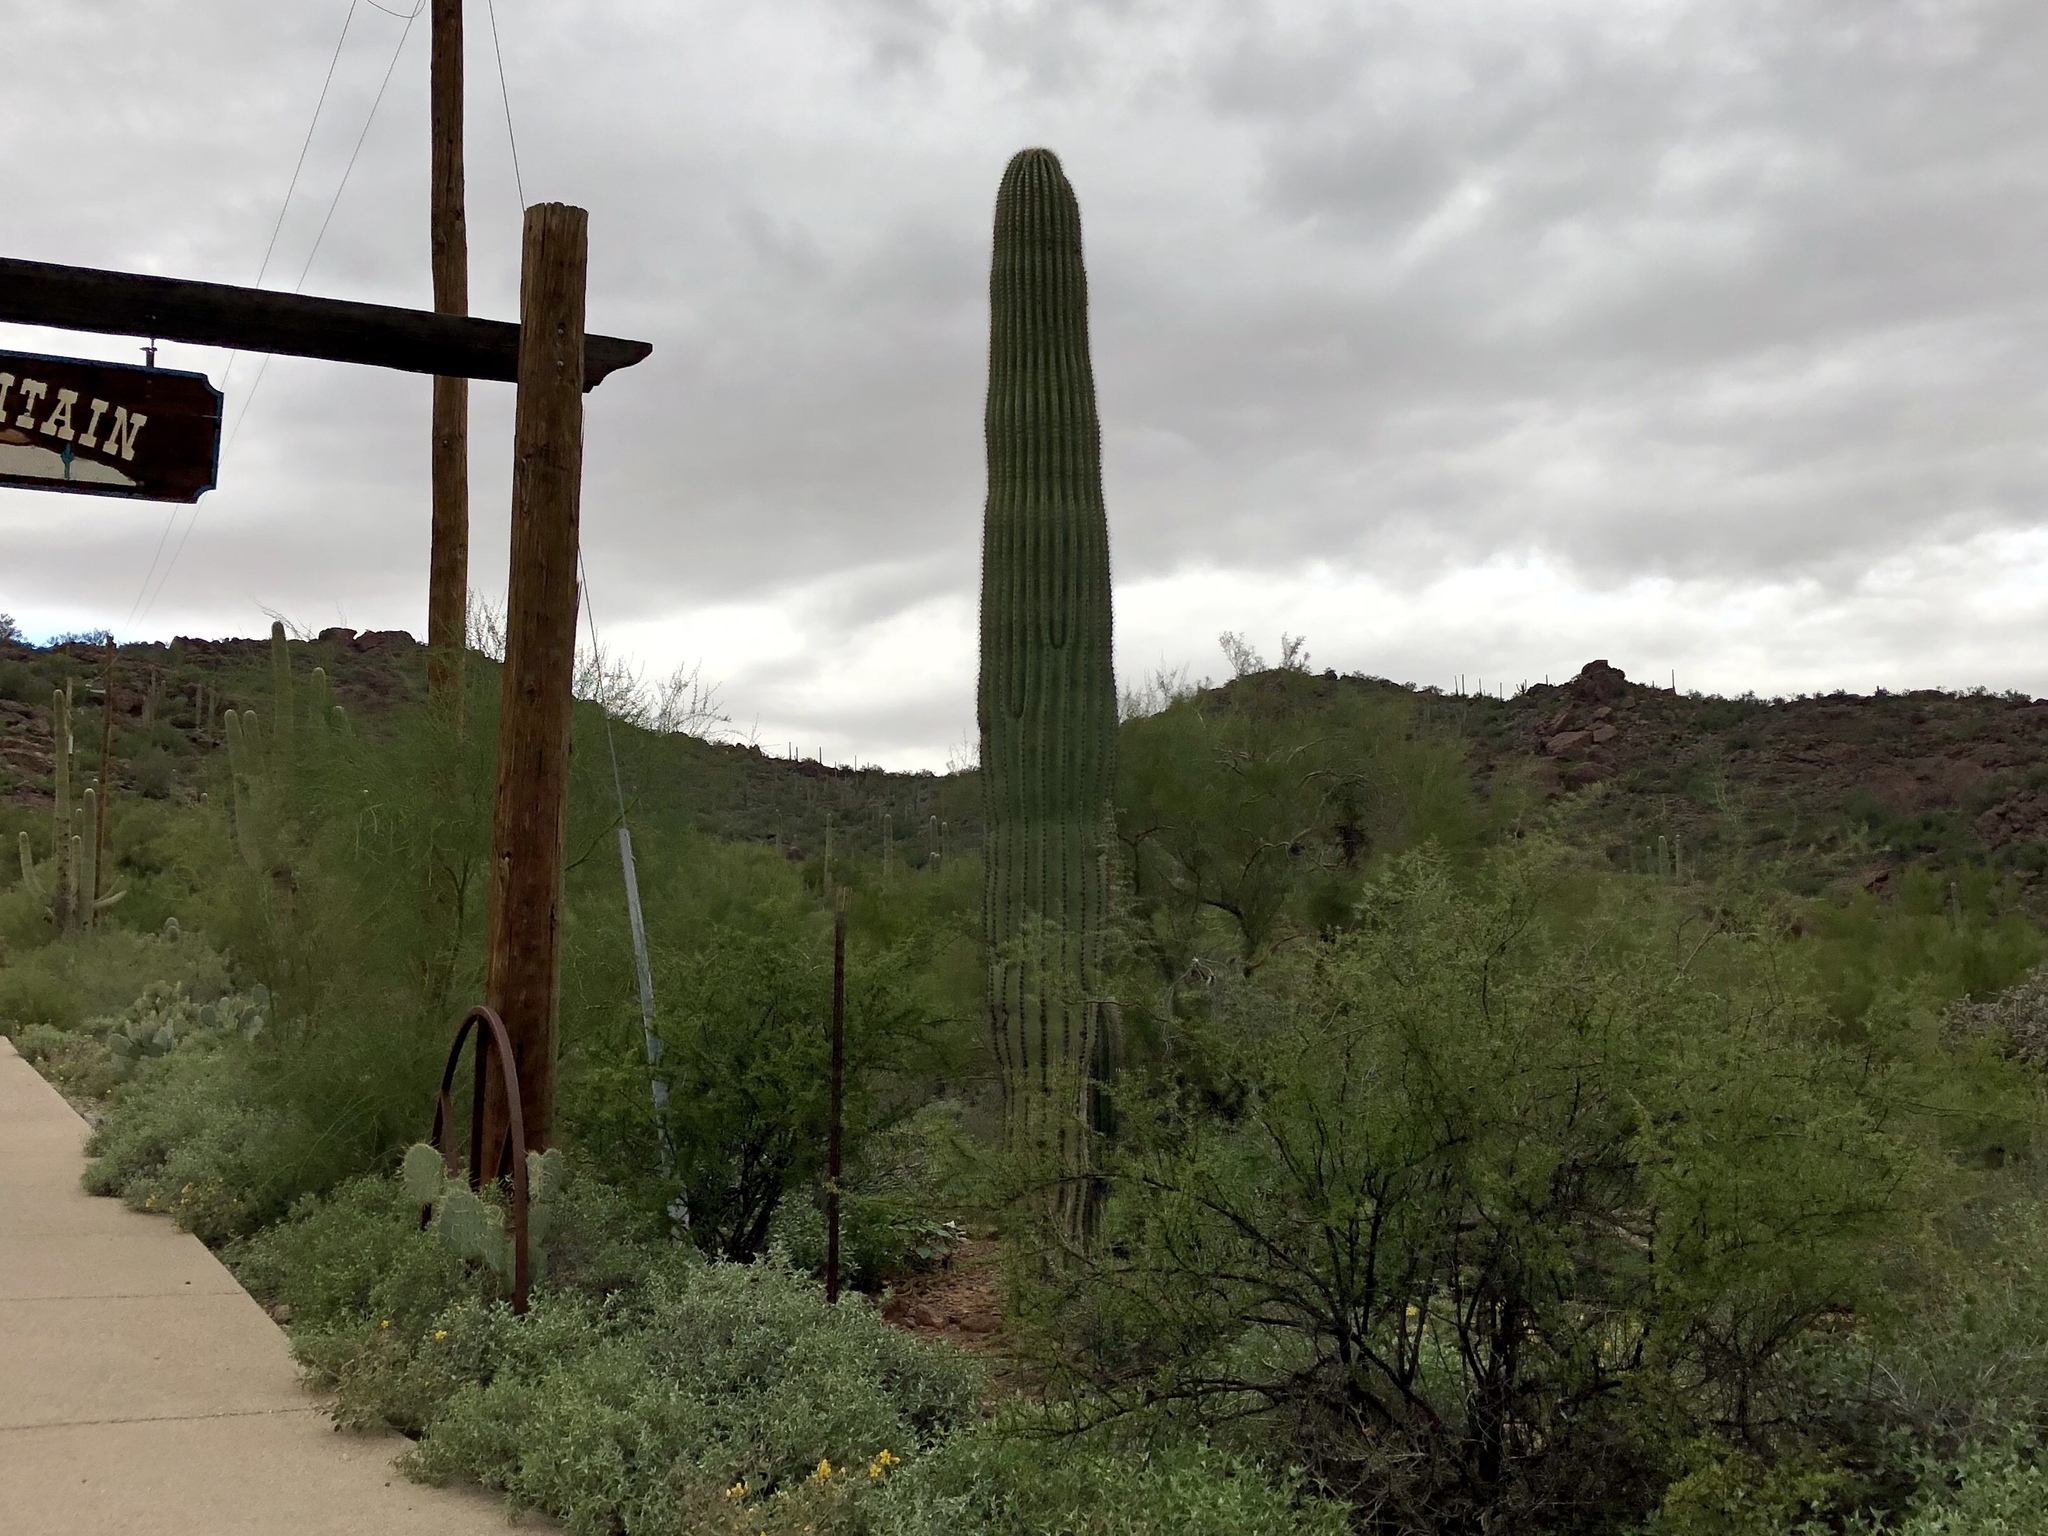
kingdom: Plantae
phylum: Tracheophyta
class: Magnoliopsida
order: Caryophyllales
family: Cactaceae
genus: Carnegiea
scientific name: Carnegiea gigantea
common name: Saguaro
